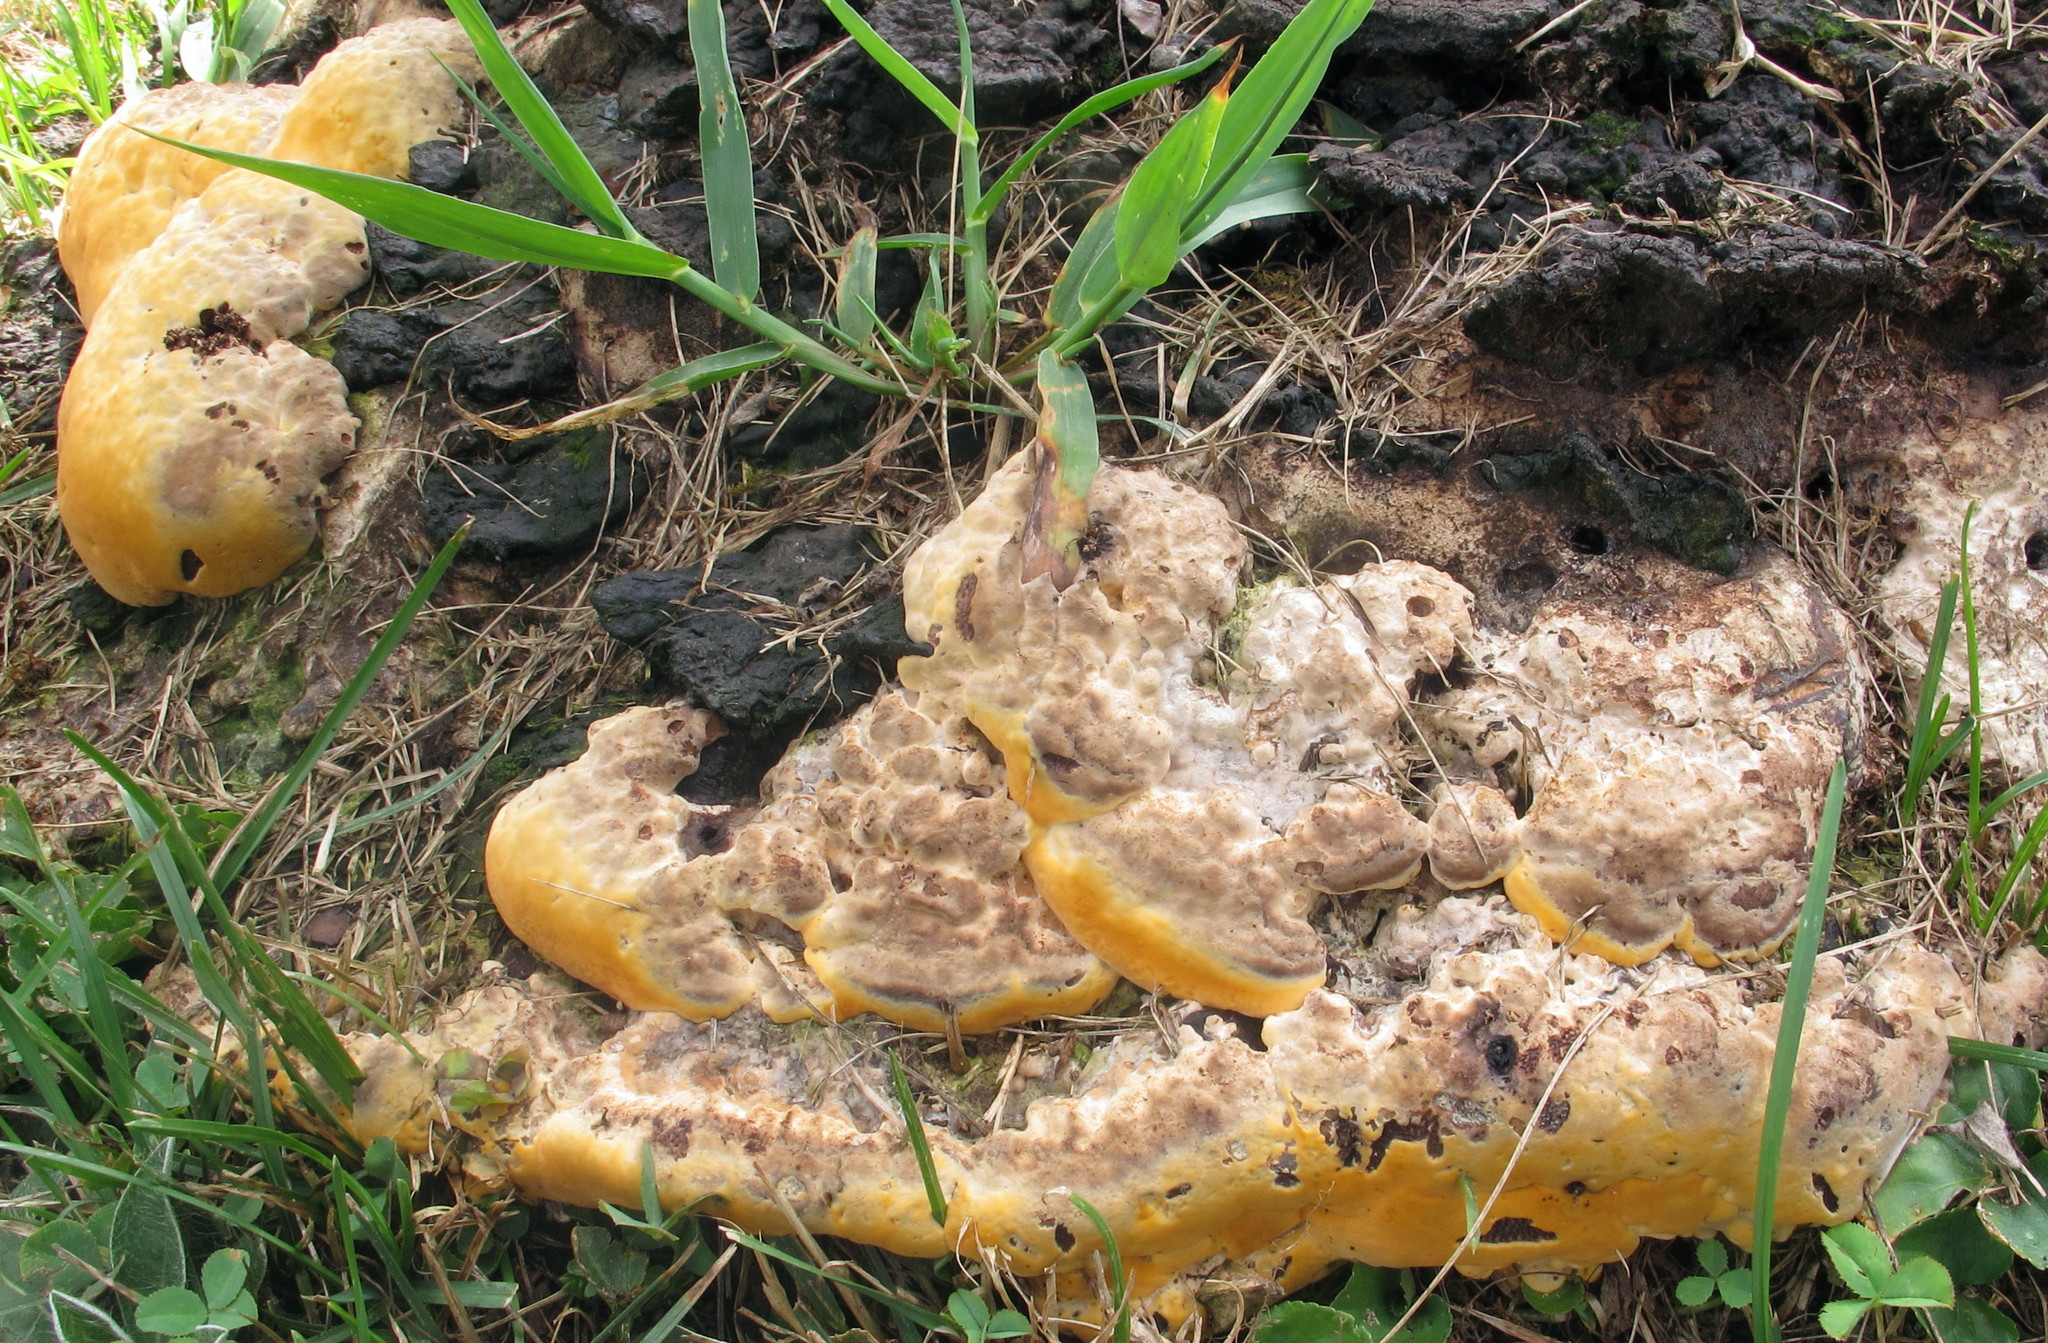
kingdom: Fungi
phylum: Basidiomycota
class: Agaricomycetes
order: Polyporales
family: Polyporaceae
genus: Vanderbylia
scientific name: Vanderbylia fraxinea
